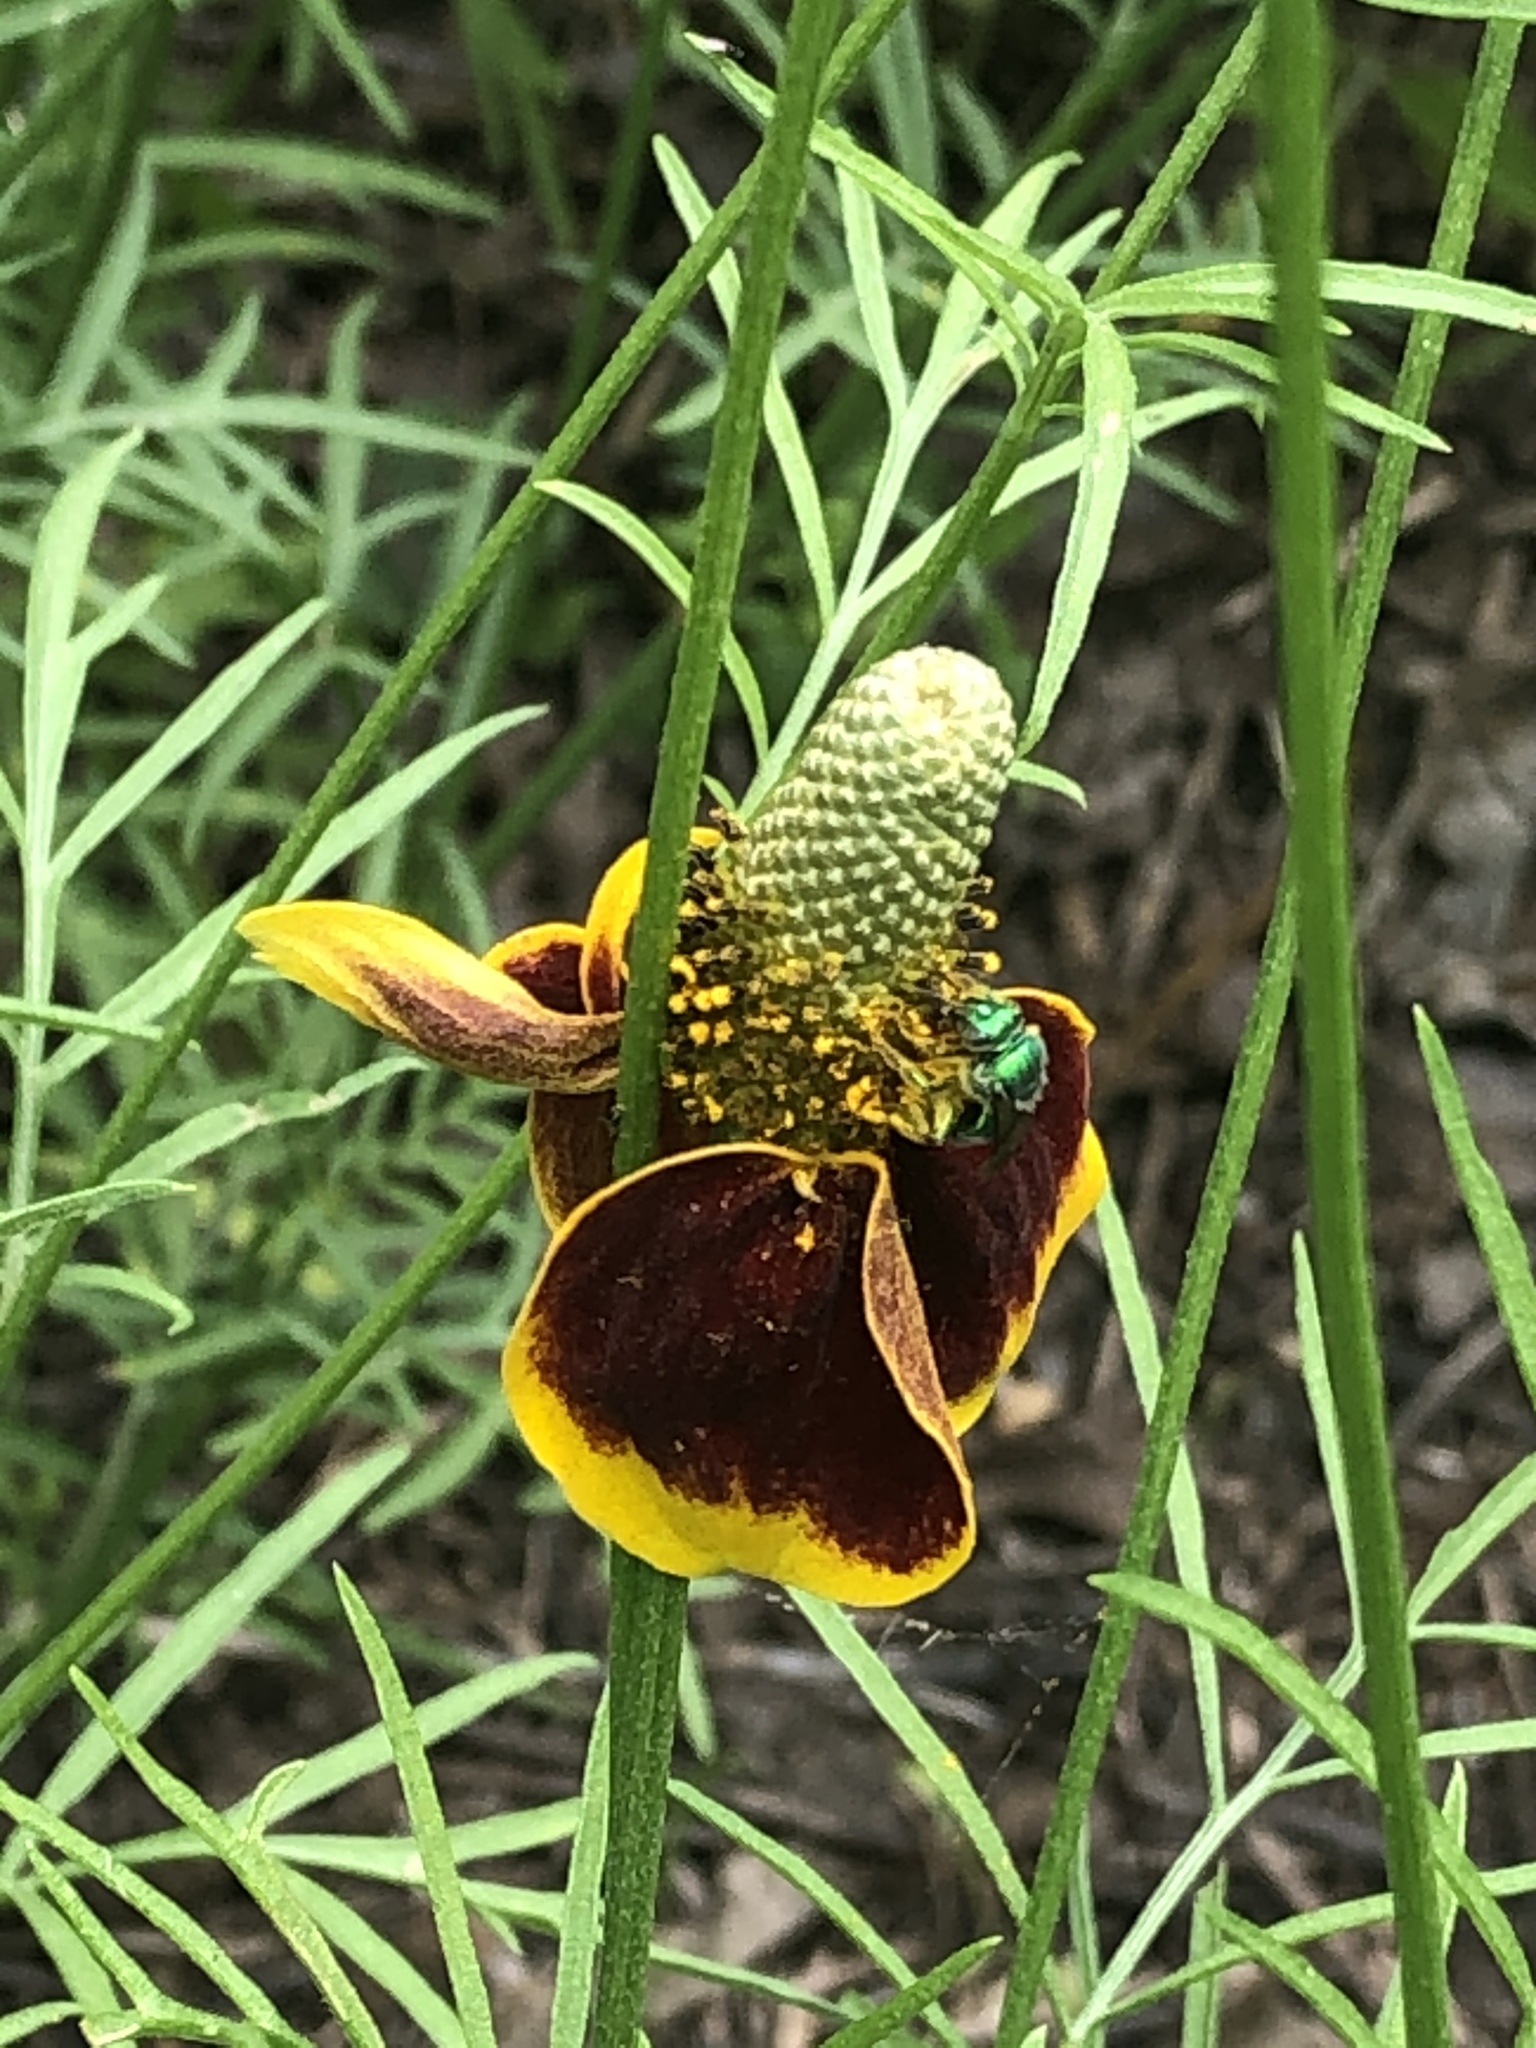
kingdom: Animalia
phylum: Arthropoda
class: Insecta
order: Hymenoptera
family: Halictidae
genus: Agapostemon
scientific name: Agapostemon splendens
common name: Brown-winged striped sweat bee
